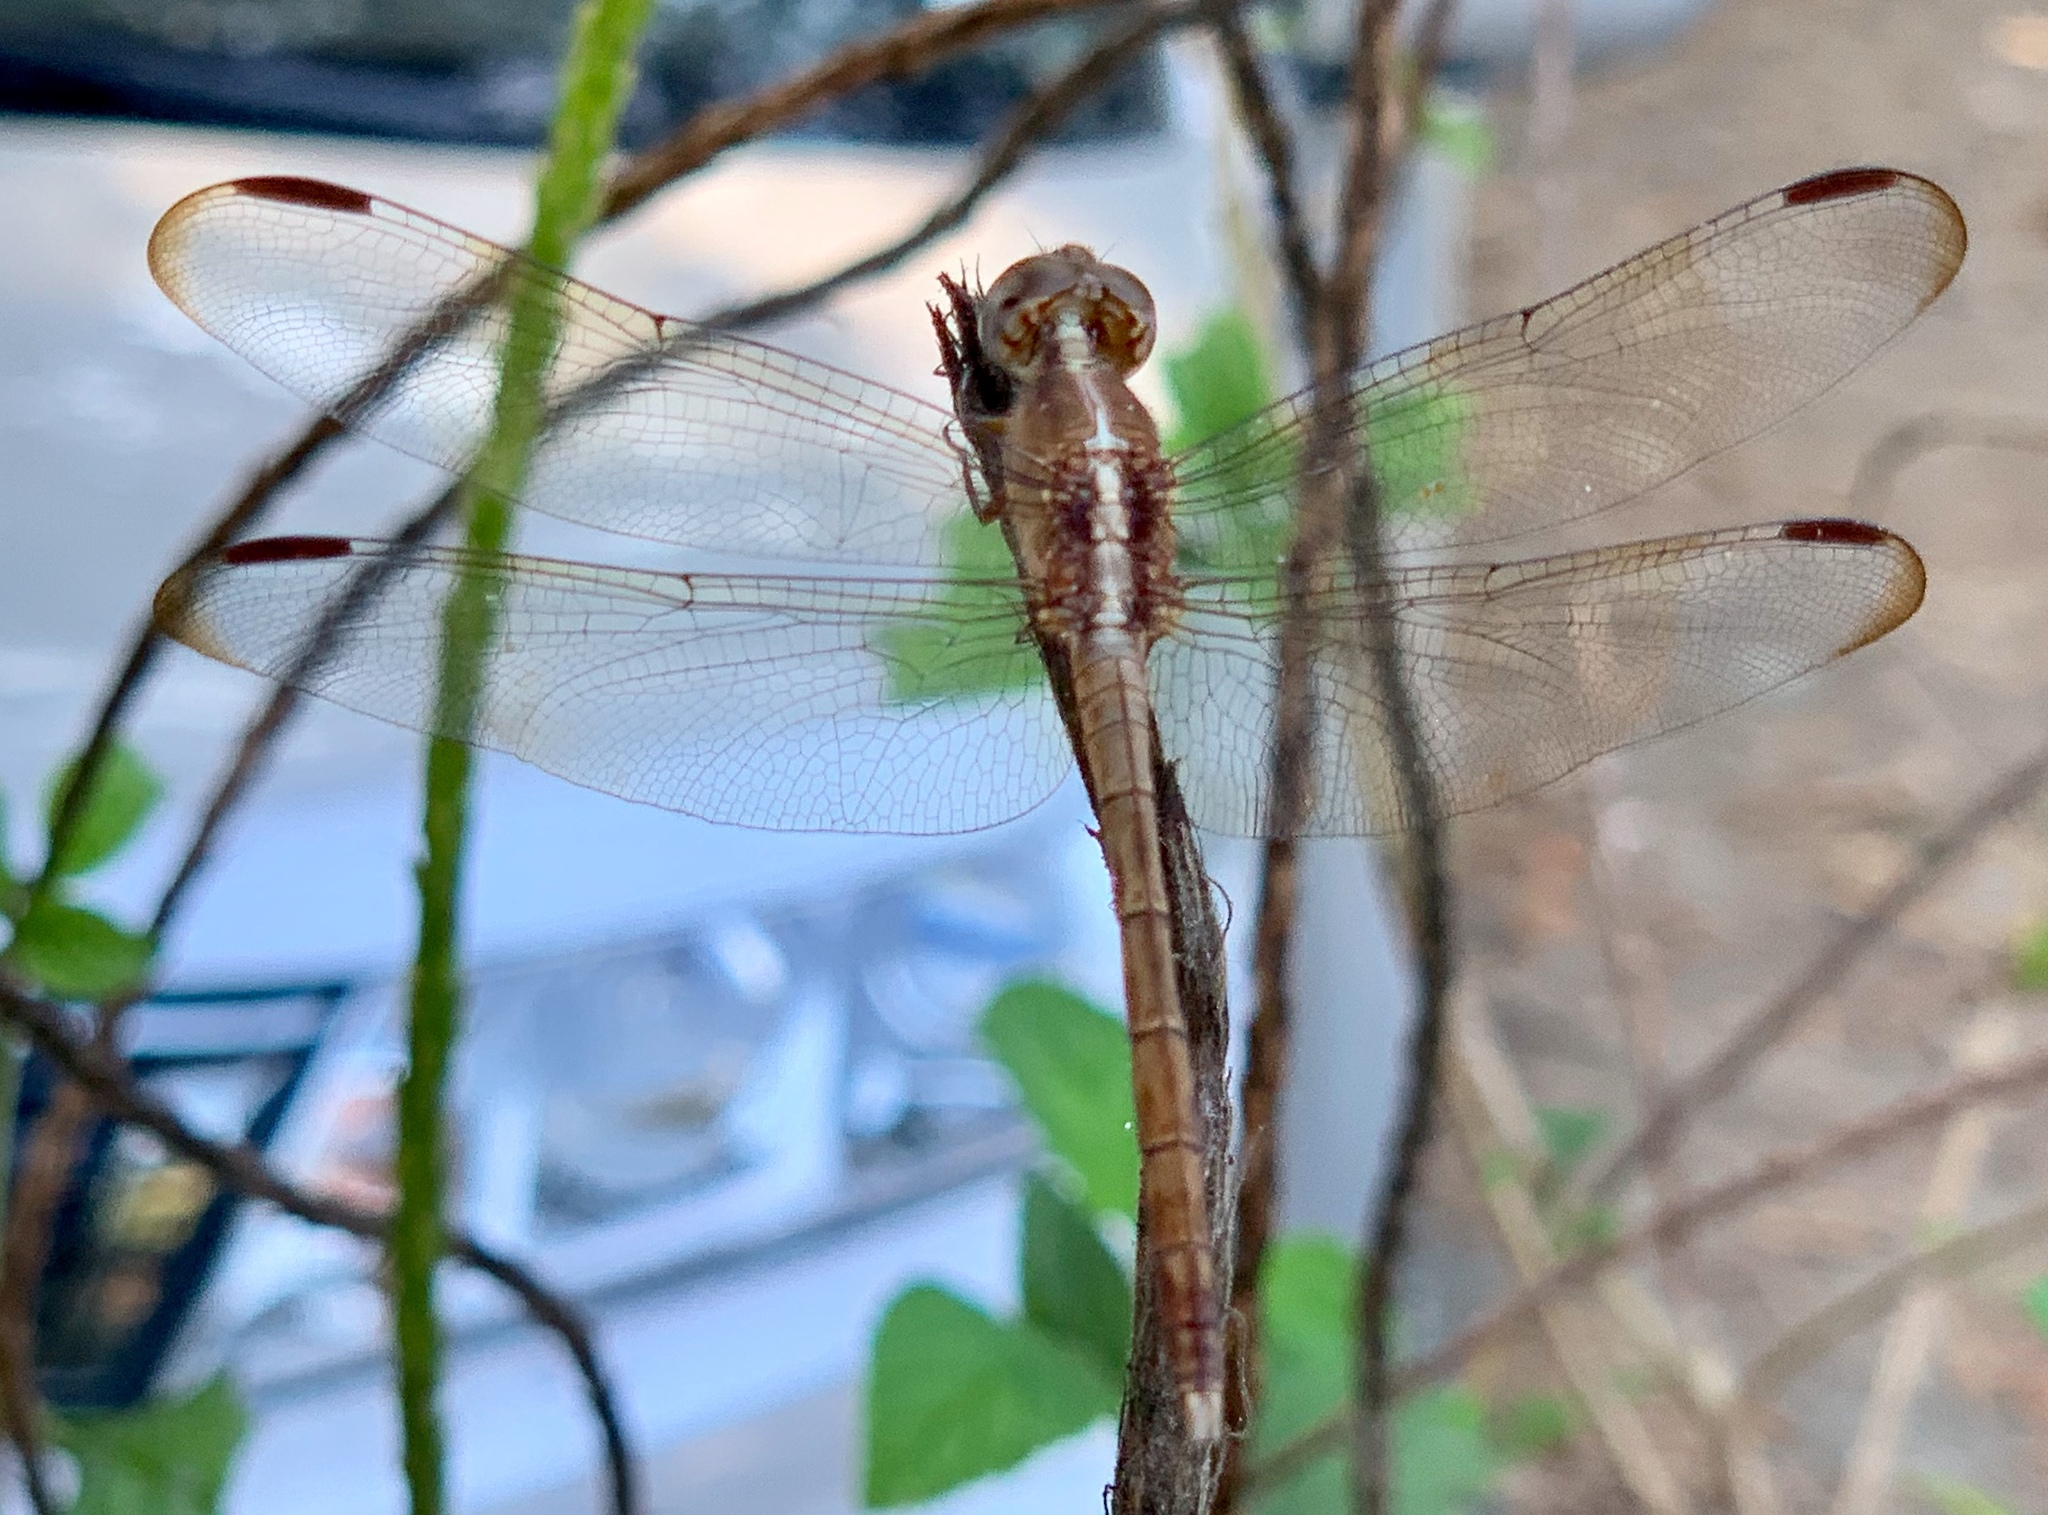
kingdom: Animalia
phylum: Arthropoda
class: Insecta
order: Odonata
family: Libellulidae
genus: Erythrodiplax
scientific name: Erythrodiplax funerea
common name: Black-winged dragonlet
